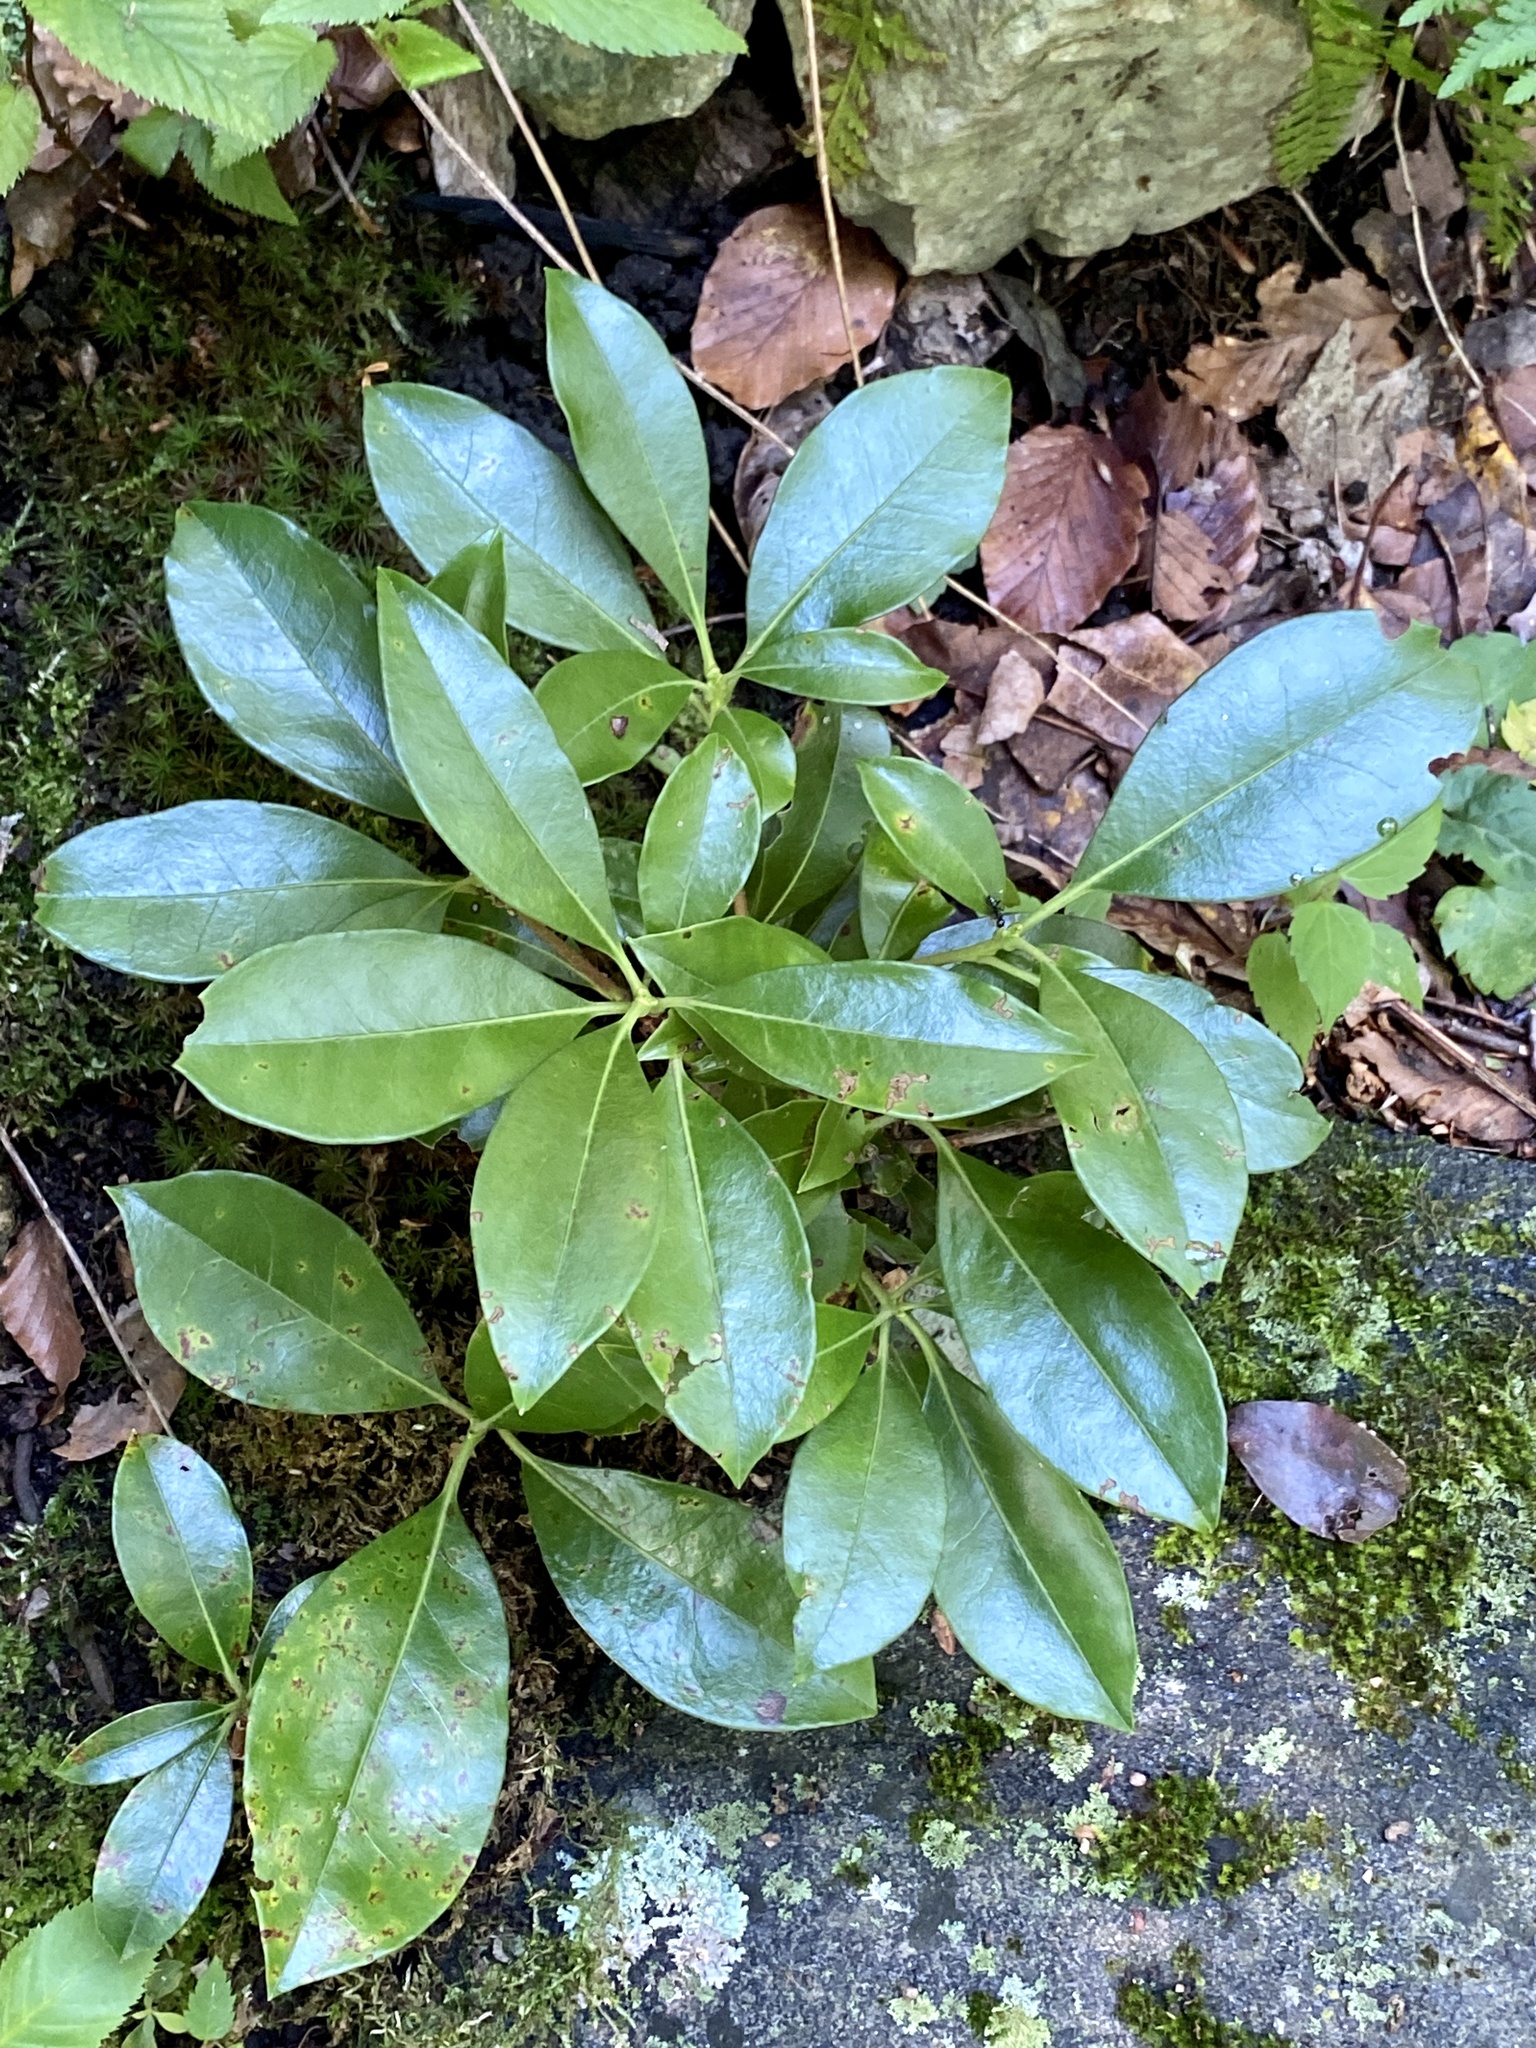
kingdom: Plantae
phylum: Tracheophyta
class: Magnoliopsida
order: Ericales
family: Ericaceae
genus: Kalmia
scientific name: Kalmia latifolia
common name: Mountain-laurel
